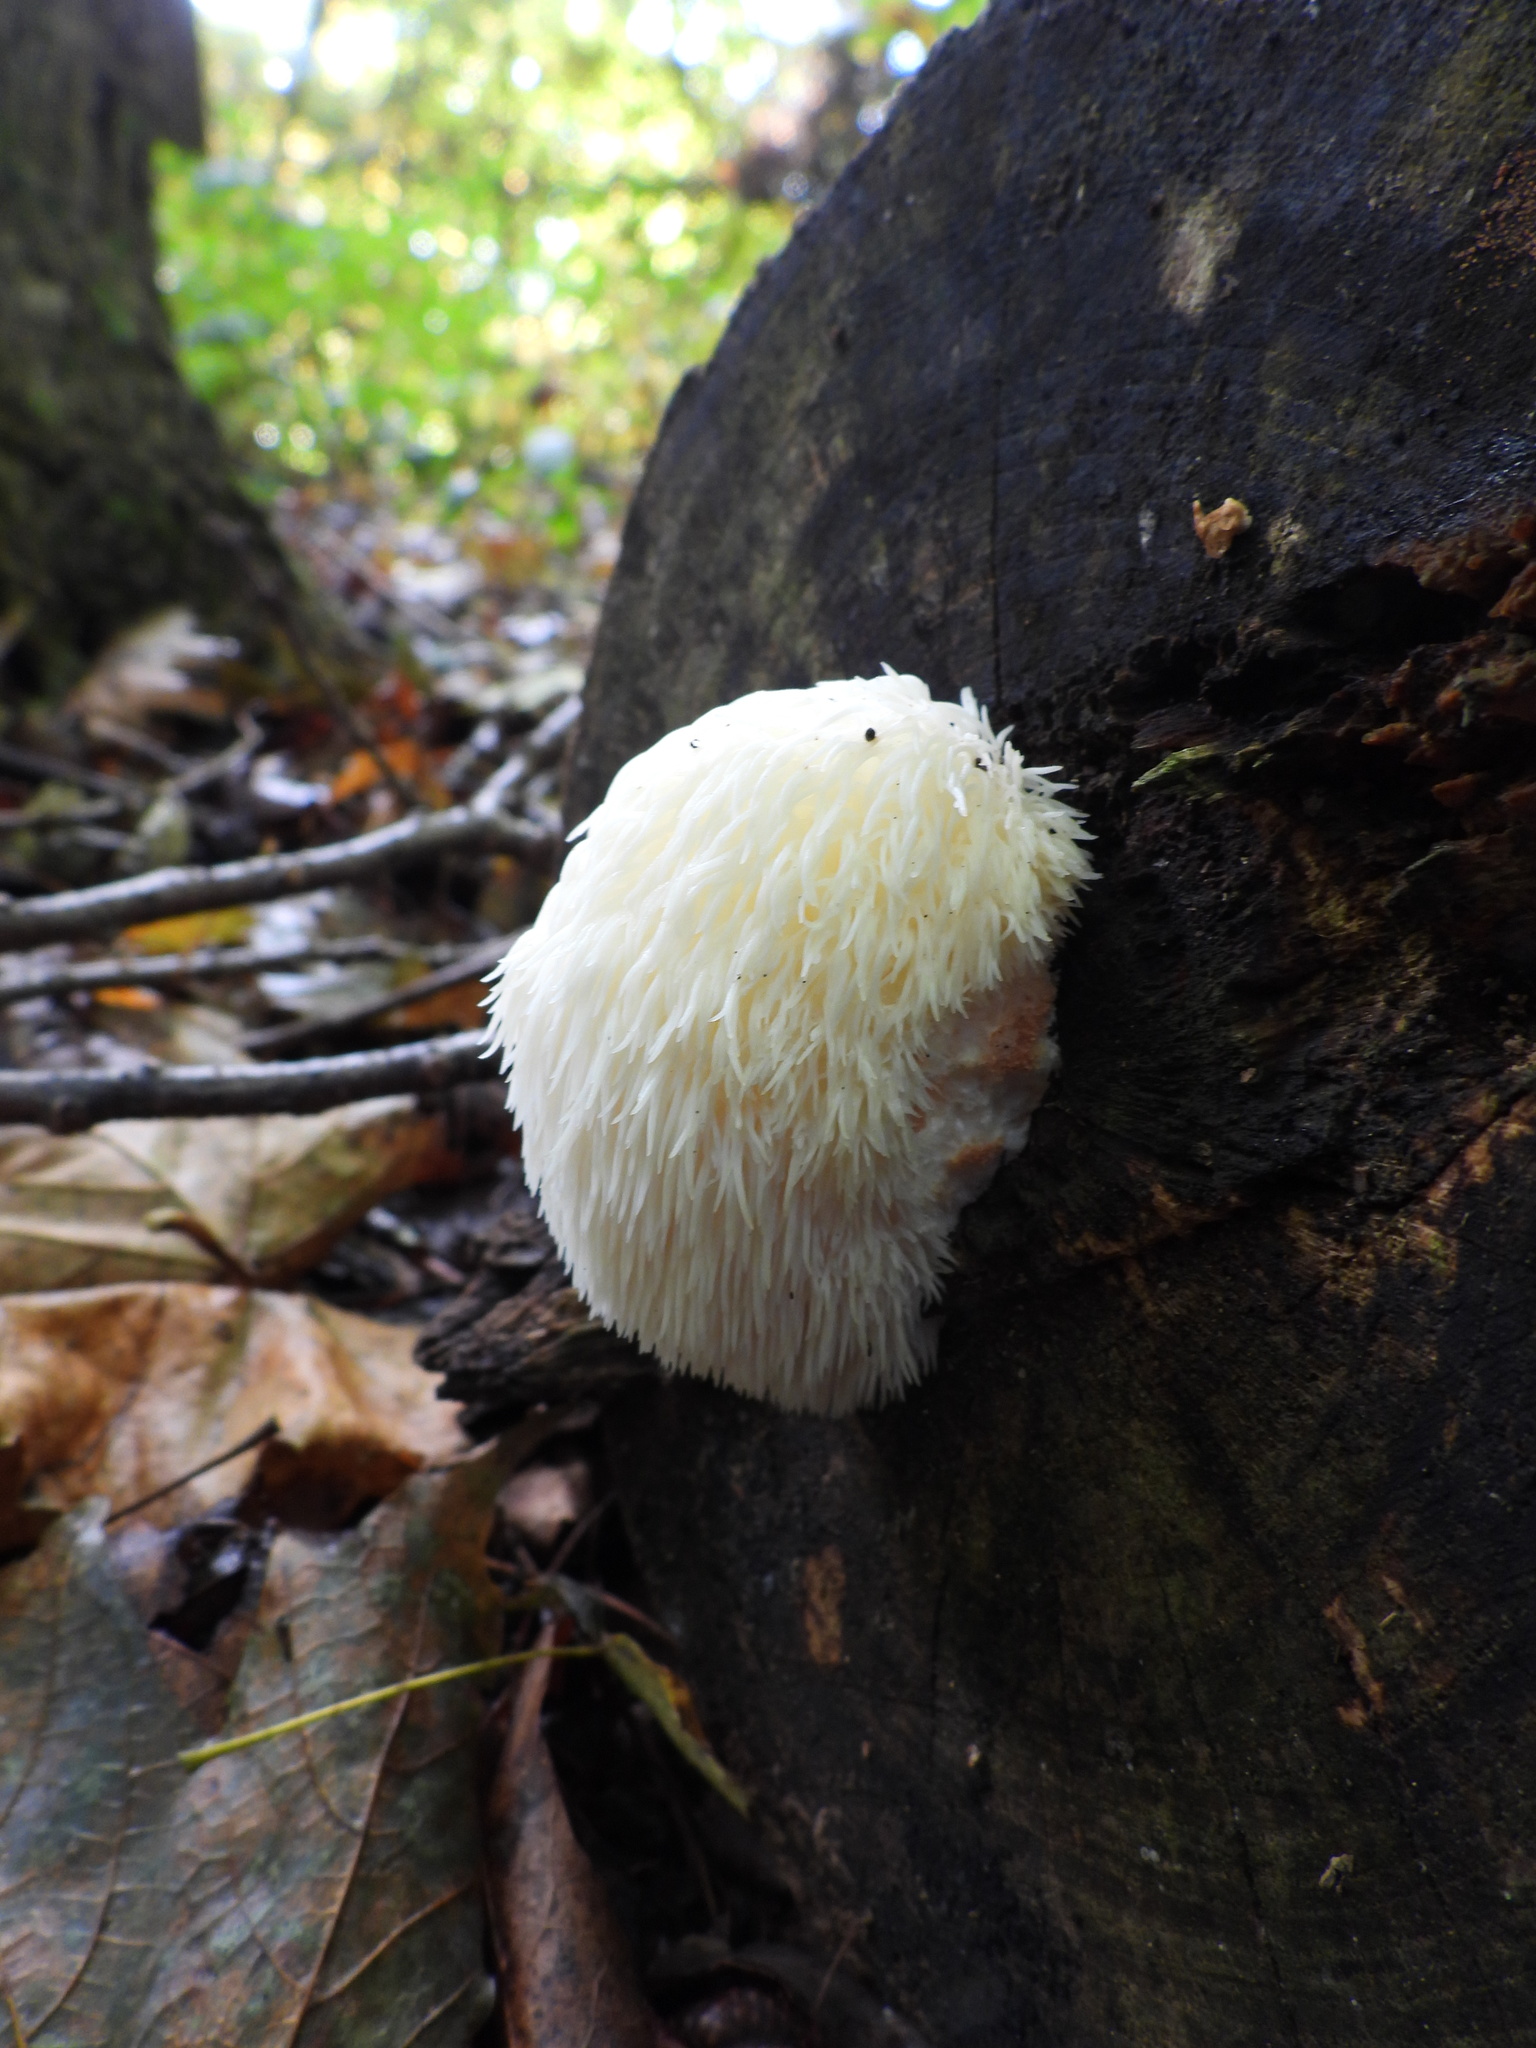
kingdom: Fungi
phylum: Basidiomycota
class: Agaricomycetes
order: Russulales
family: Hericiaceae
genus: Hericium
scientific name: Hericium erinaceus
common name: Bearded tooth
